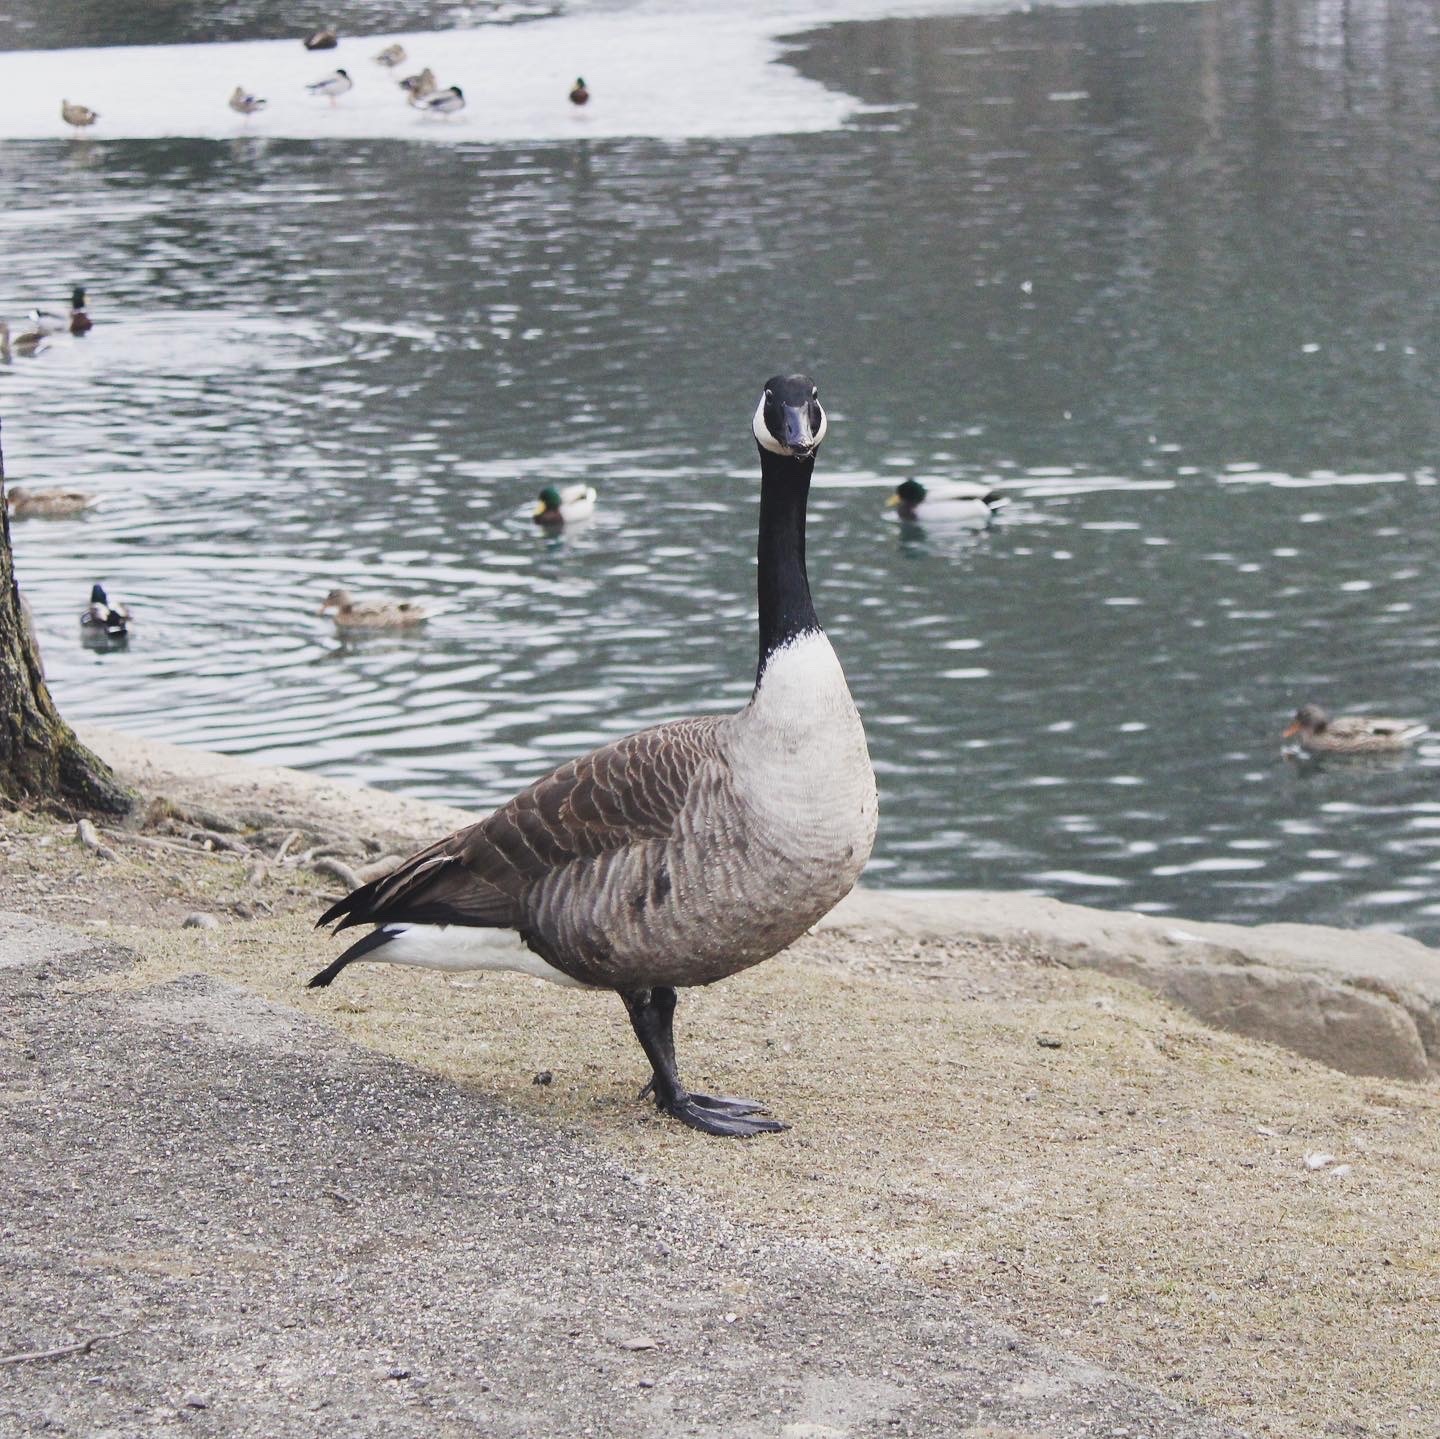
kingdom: Animalia
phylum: Chordata
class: Aves
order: Anseriformes
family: Anatidae
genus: Branta
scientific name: Branta canadensis
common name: Canada goose
